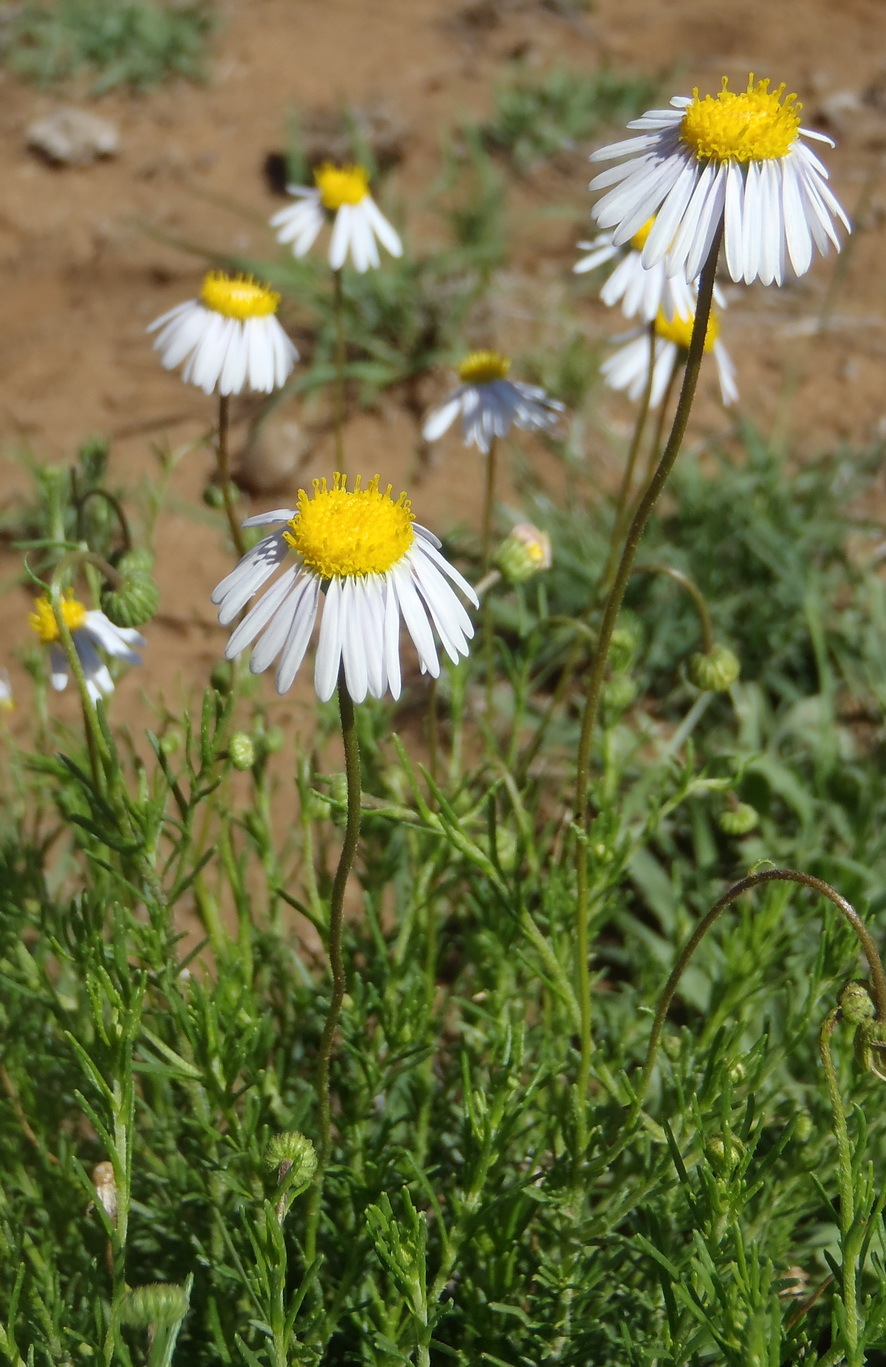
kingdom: Plantae
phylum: Tracheophyta
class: Magnoliopsida
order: Asterales
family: Asteraceae
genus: Felicia
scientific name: Felicia muricata
